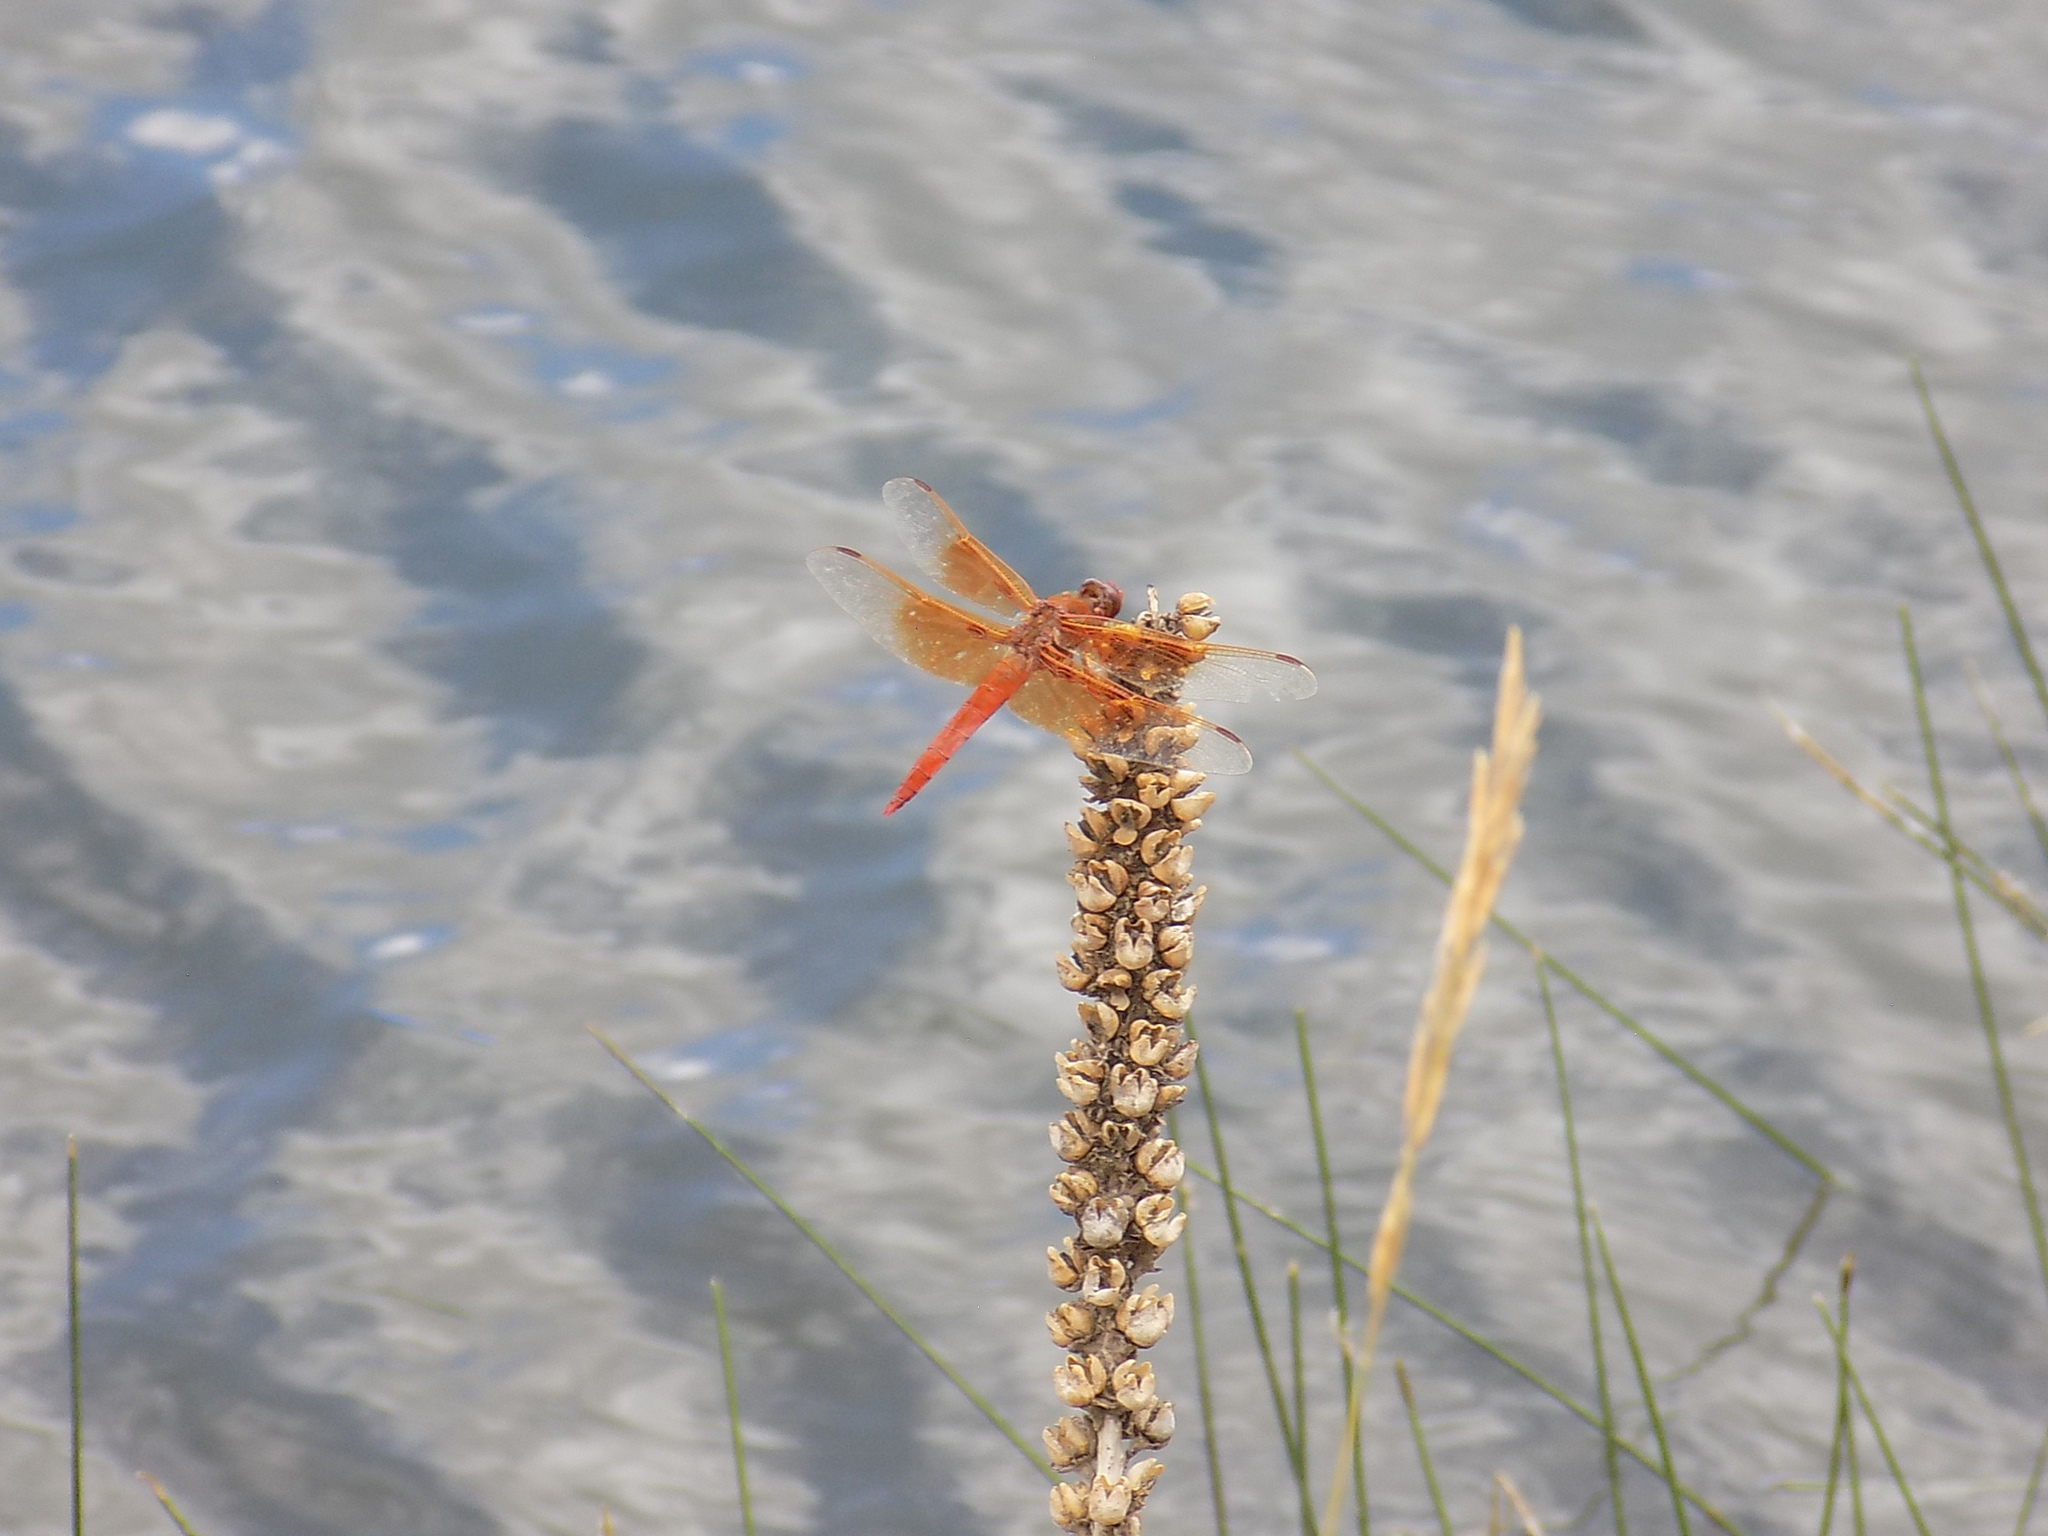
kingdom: Animalia
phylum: Arthropoda
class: Insecta
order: Odonata
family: Libellulidae
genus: Libellula
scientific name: Libellula saturata
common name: Flame skimmer
